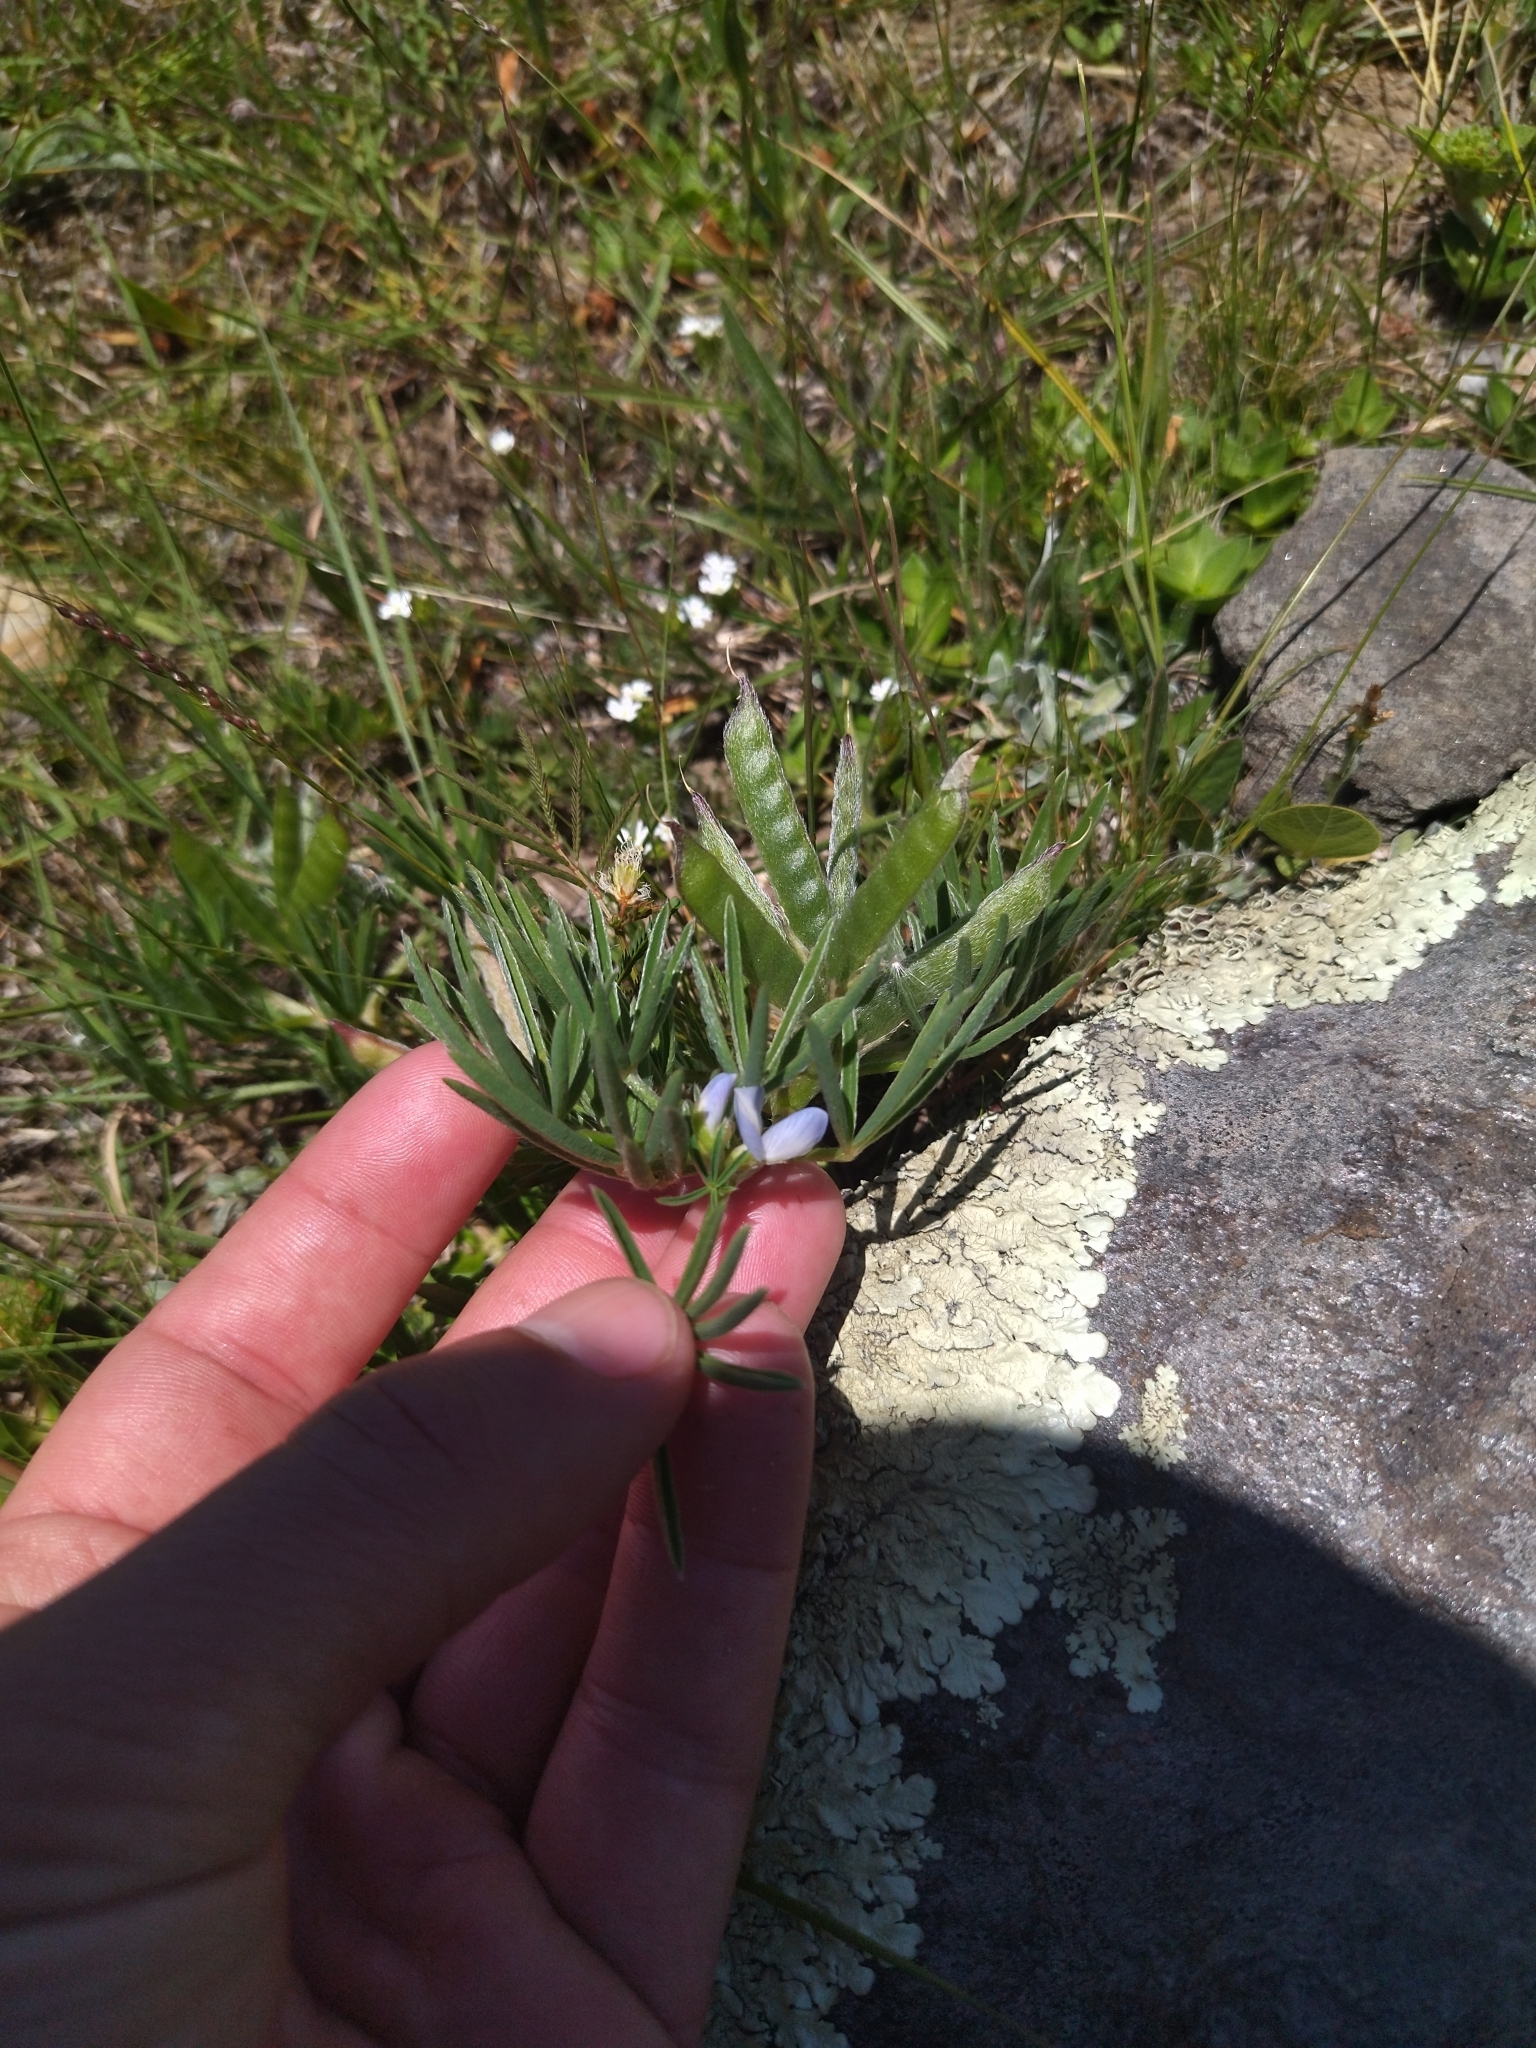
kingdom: Plantae
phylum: Tracheophyta
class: Magnoliopsida
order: Fabales
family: Fabaceae
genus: Lupinus
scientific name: Lupinus linearis
